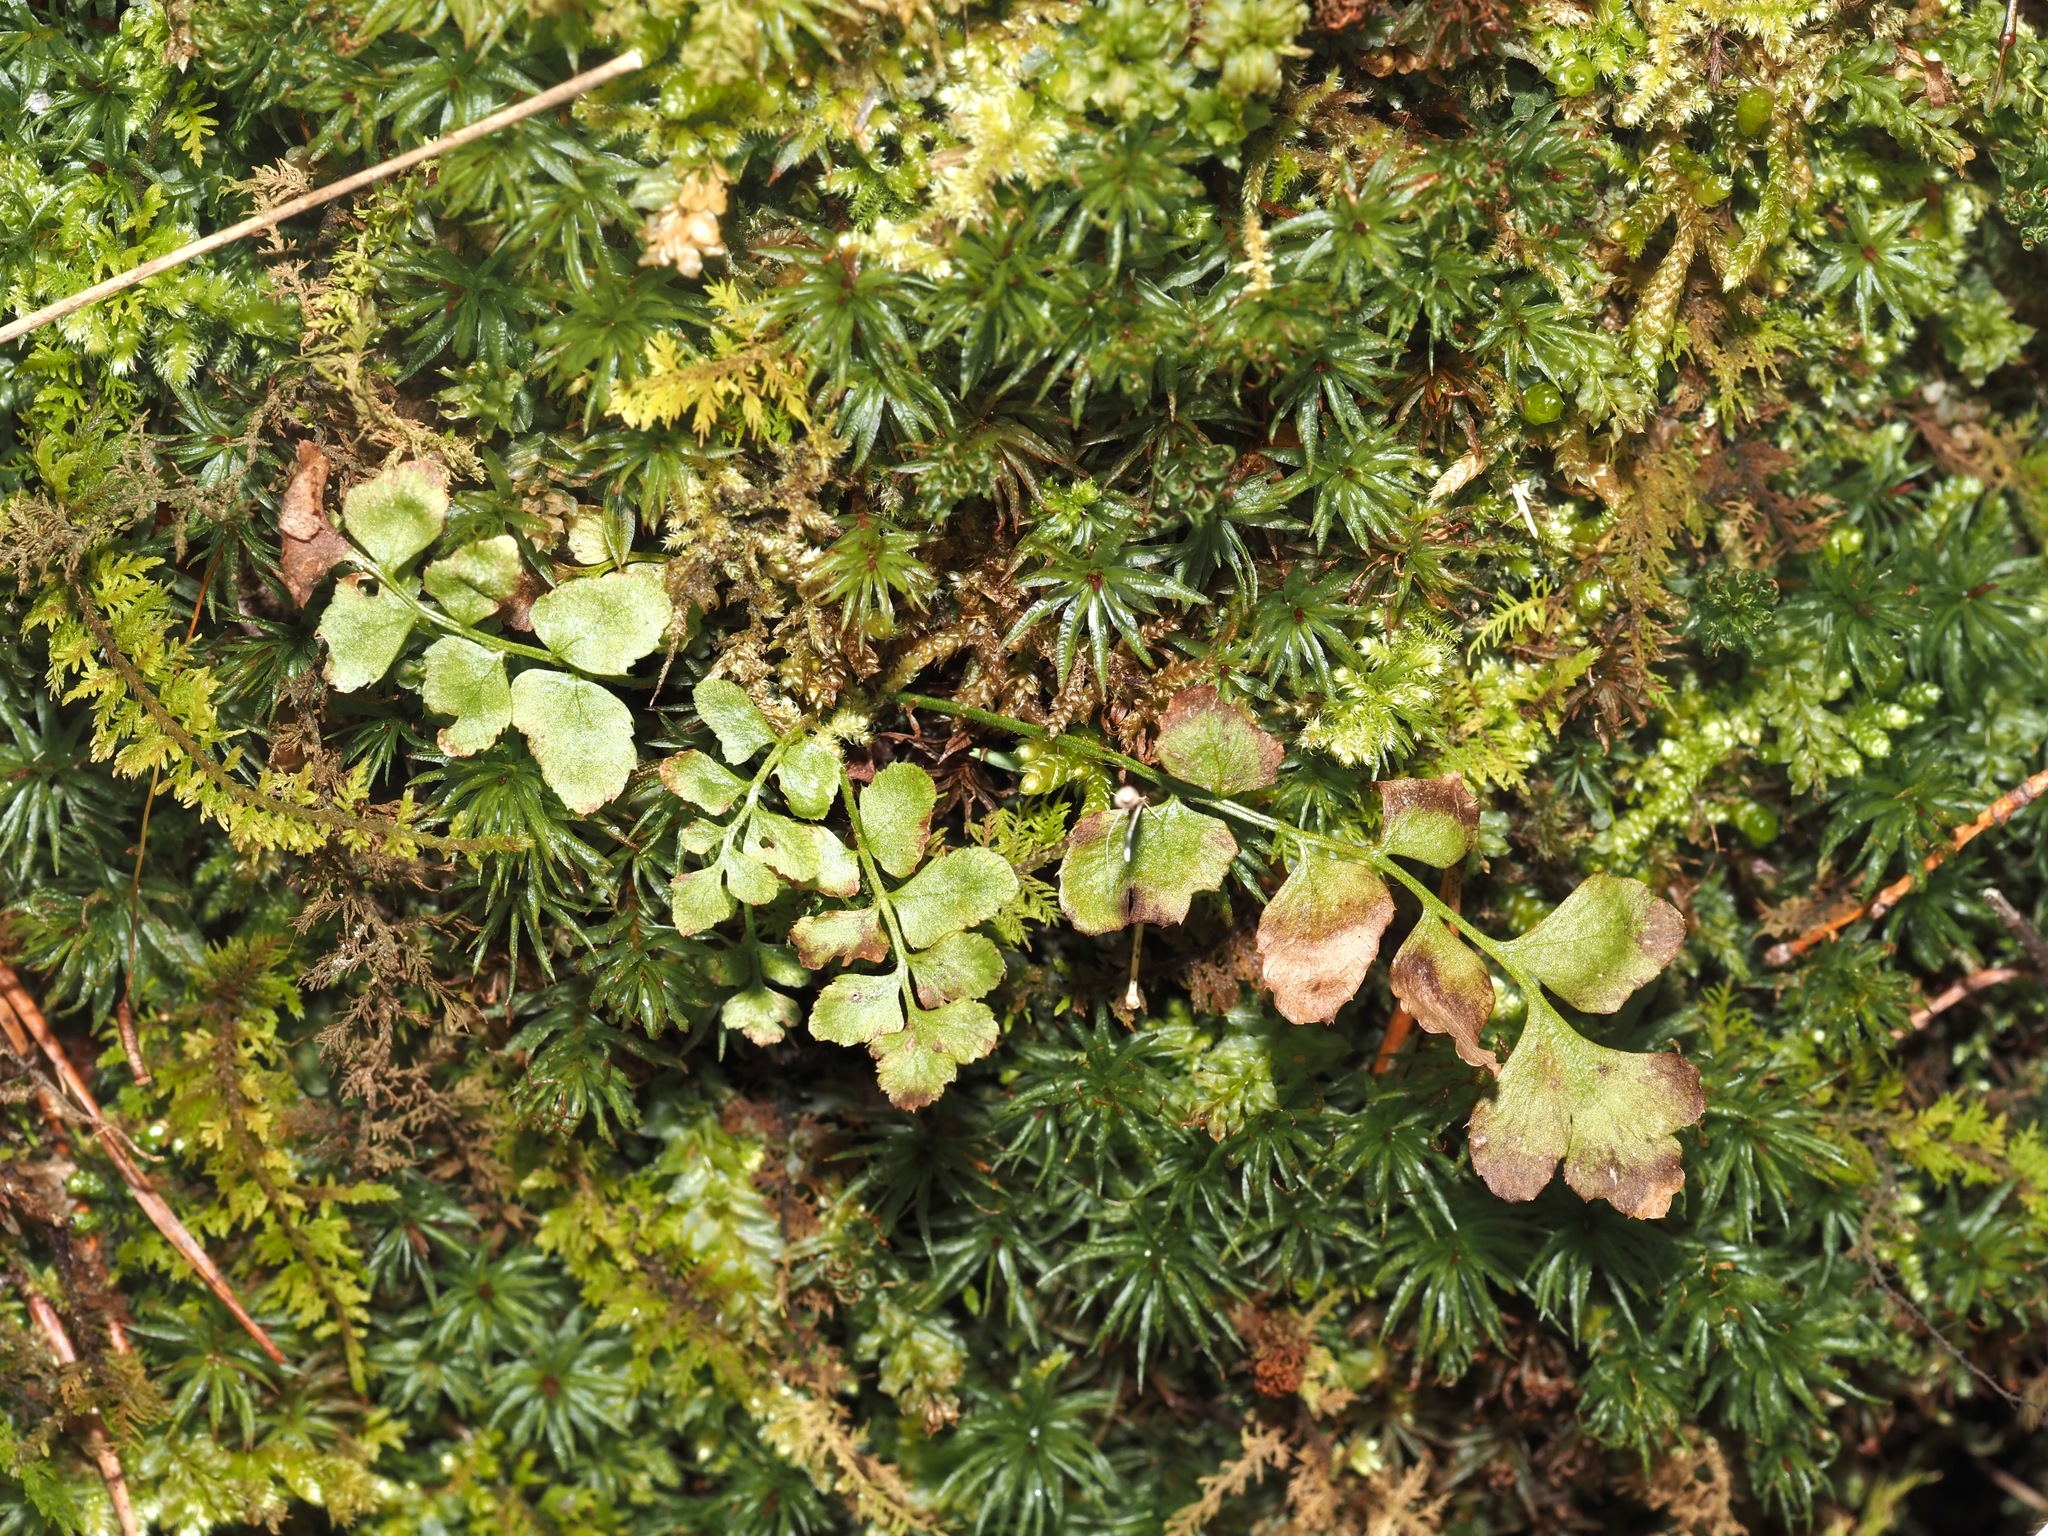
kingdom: Plantae
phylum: Tracheophyta
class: Polypodiopsida
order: Polypodiales
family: Dryopteridaceae
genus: Polystichum
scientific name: Polystichum acrostichoides
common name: Christmas fern
